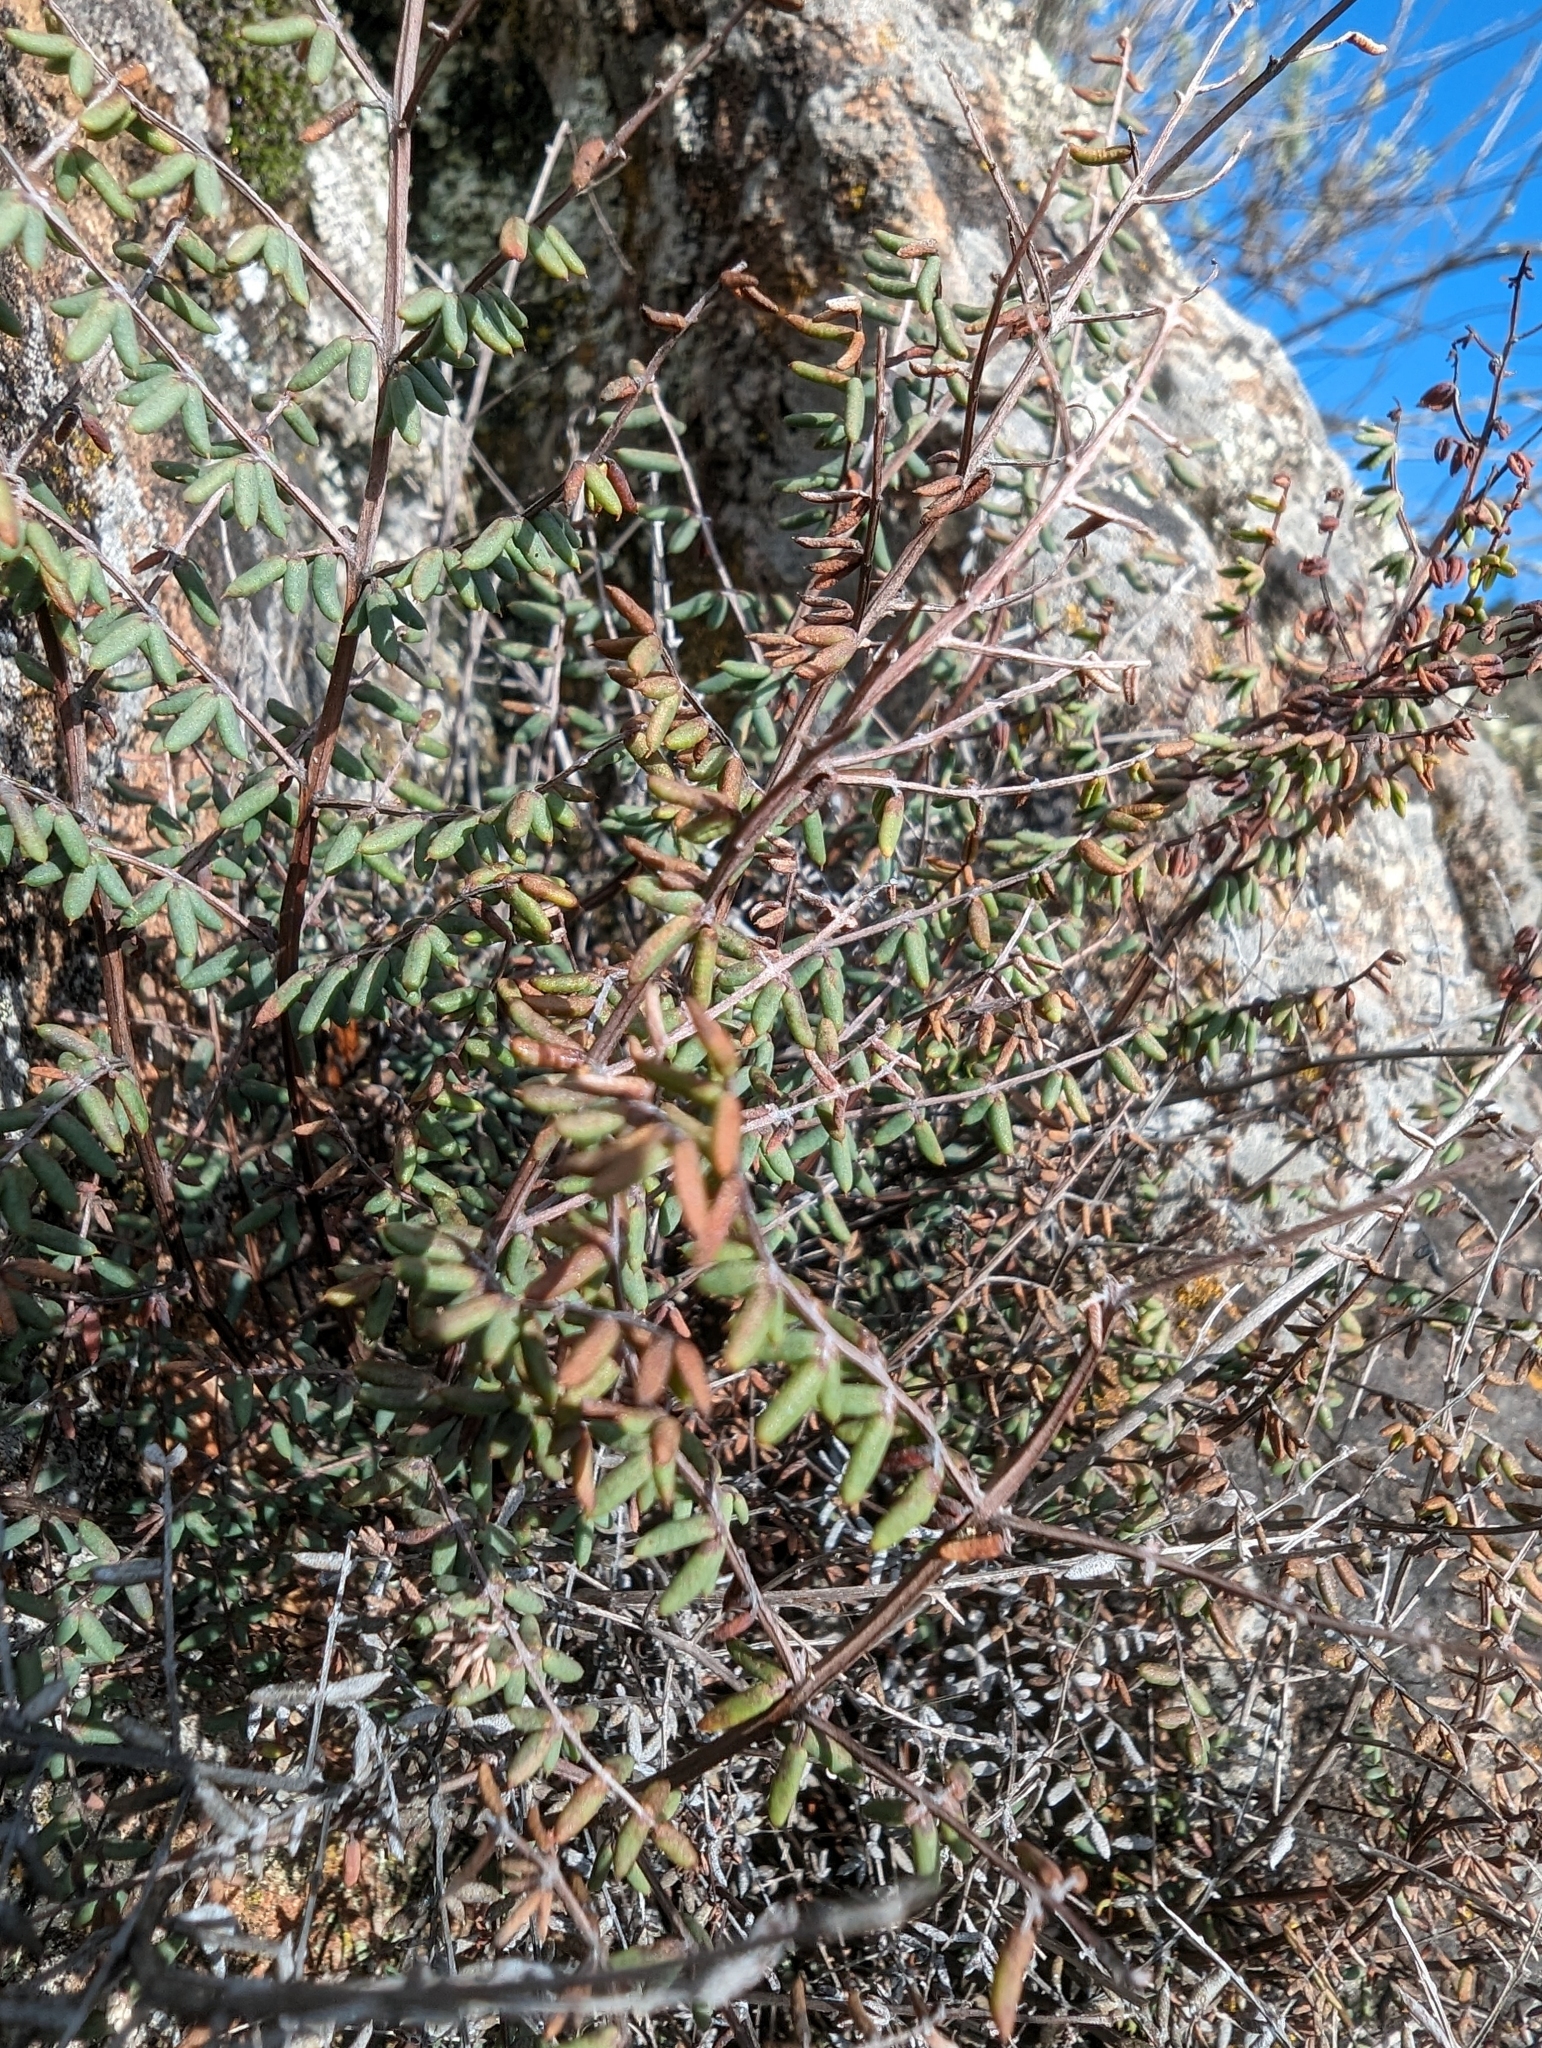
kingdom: Plantae
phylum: Tracheophyta
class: Polypodiopsida
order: Polypodiales
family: Pteridaceae
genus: Pellaea
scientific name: Pellaea mucronata
